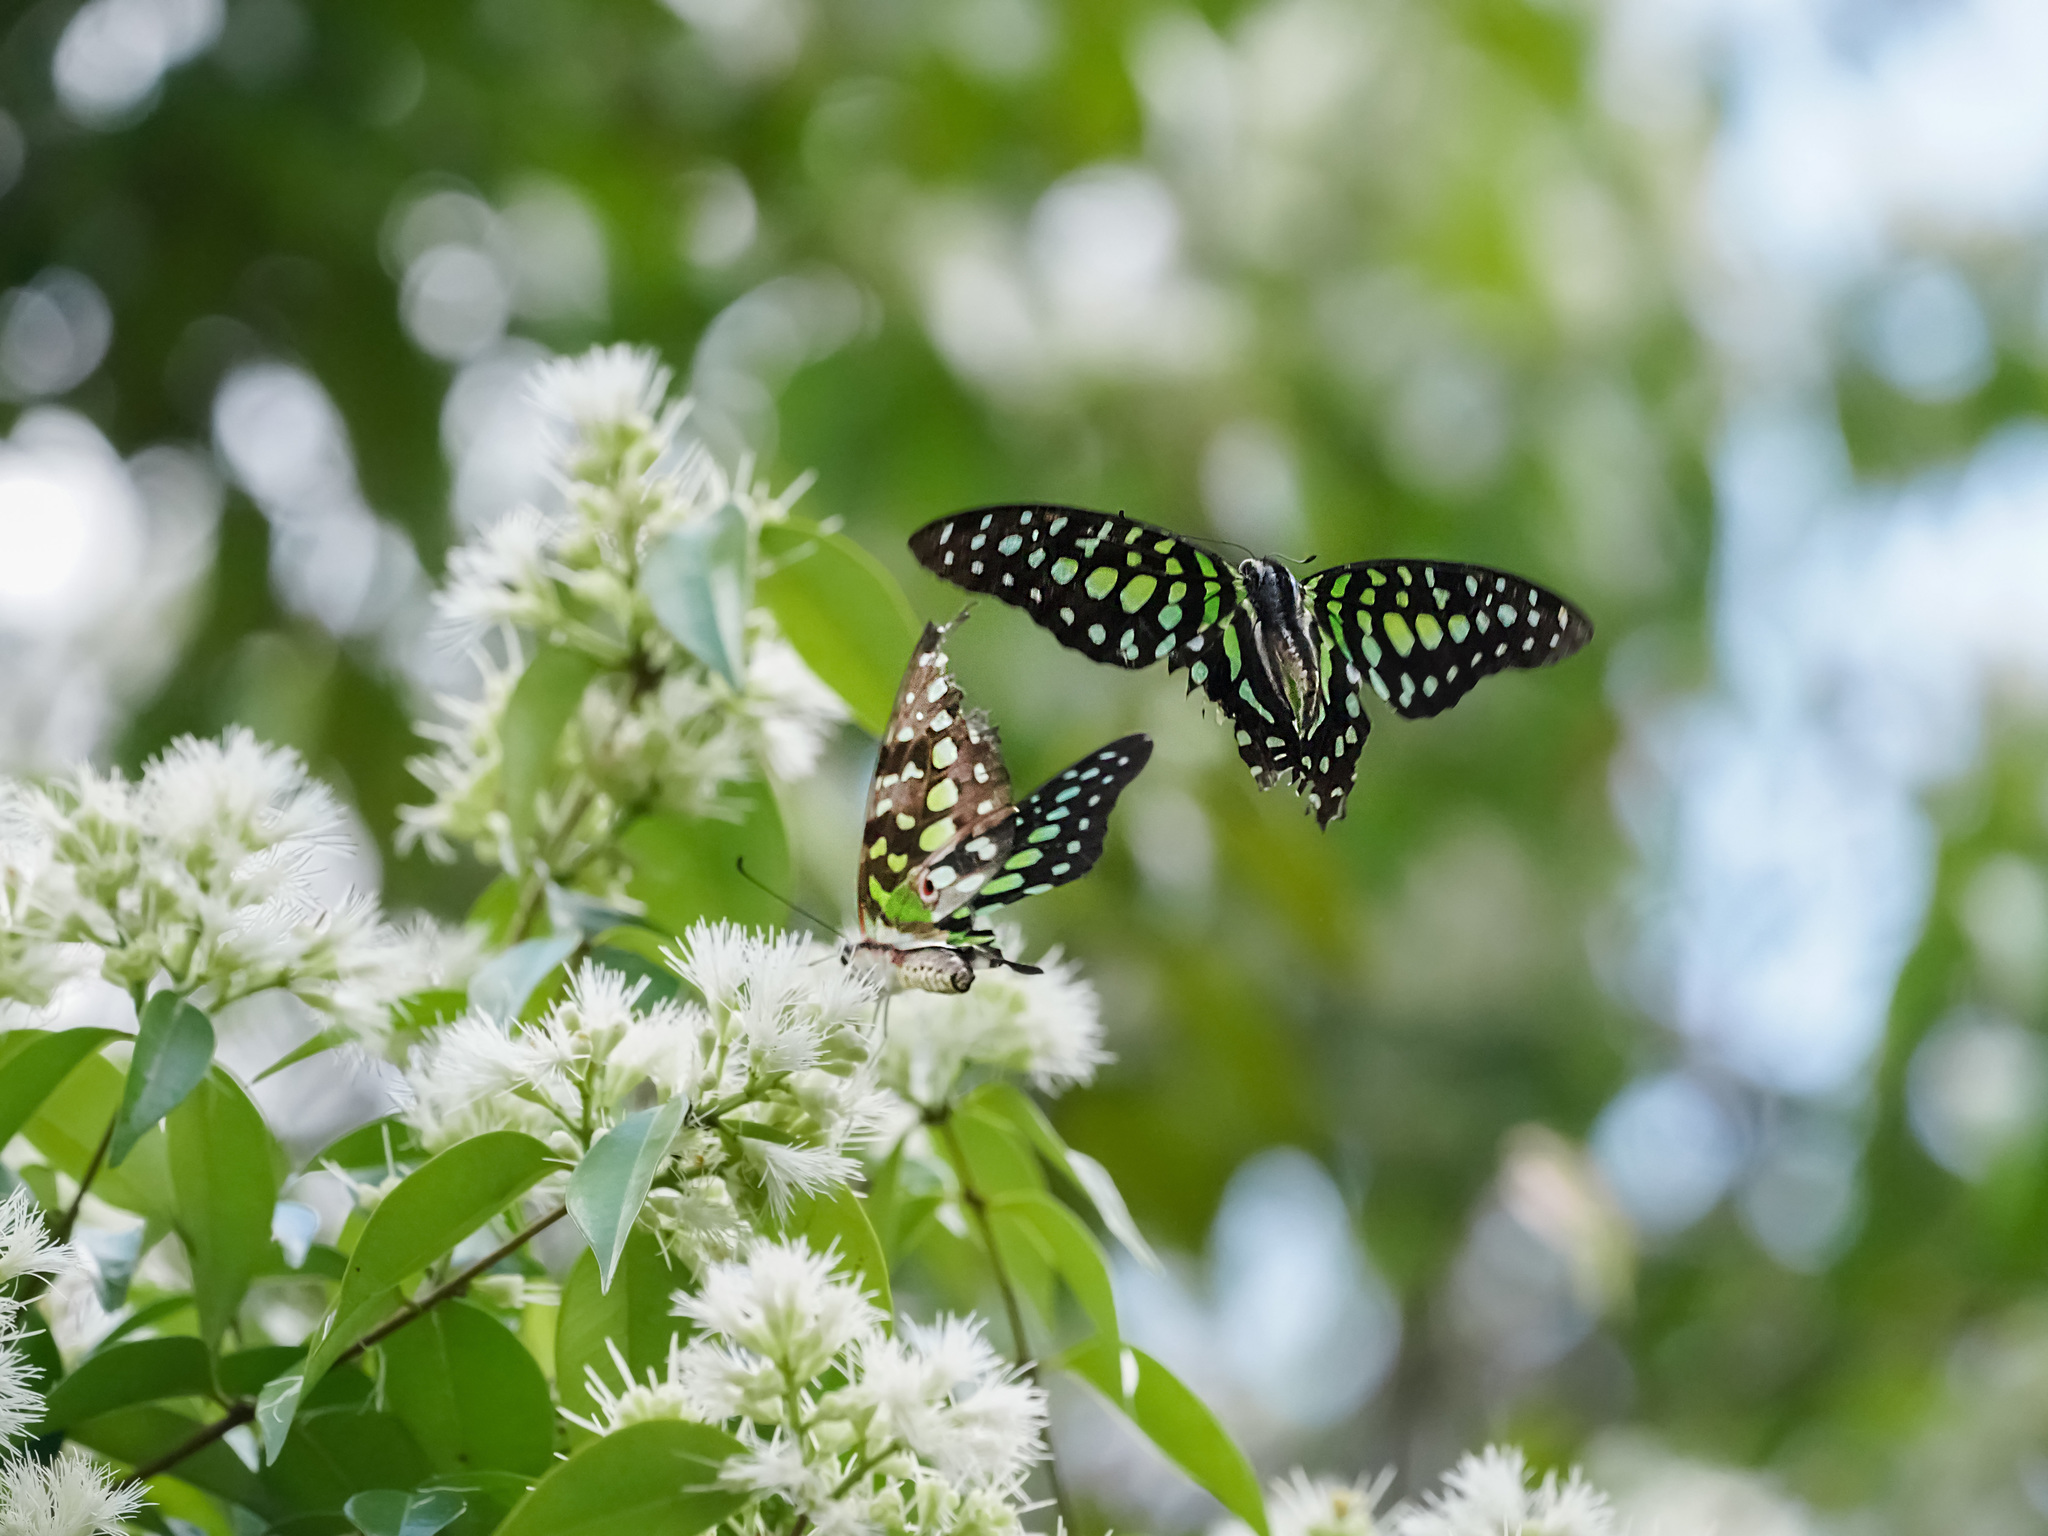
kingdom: Animalia
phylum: Arthropoda
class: Insecta
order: Lepidoptera
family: Papilionidae
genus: Graphium
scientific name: Graphium agamemnon
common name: Tailed jay
